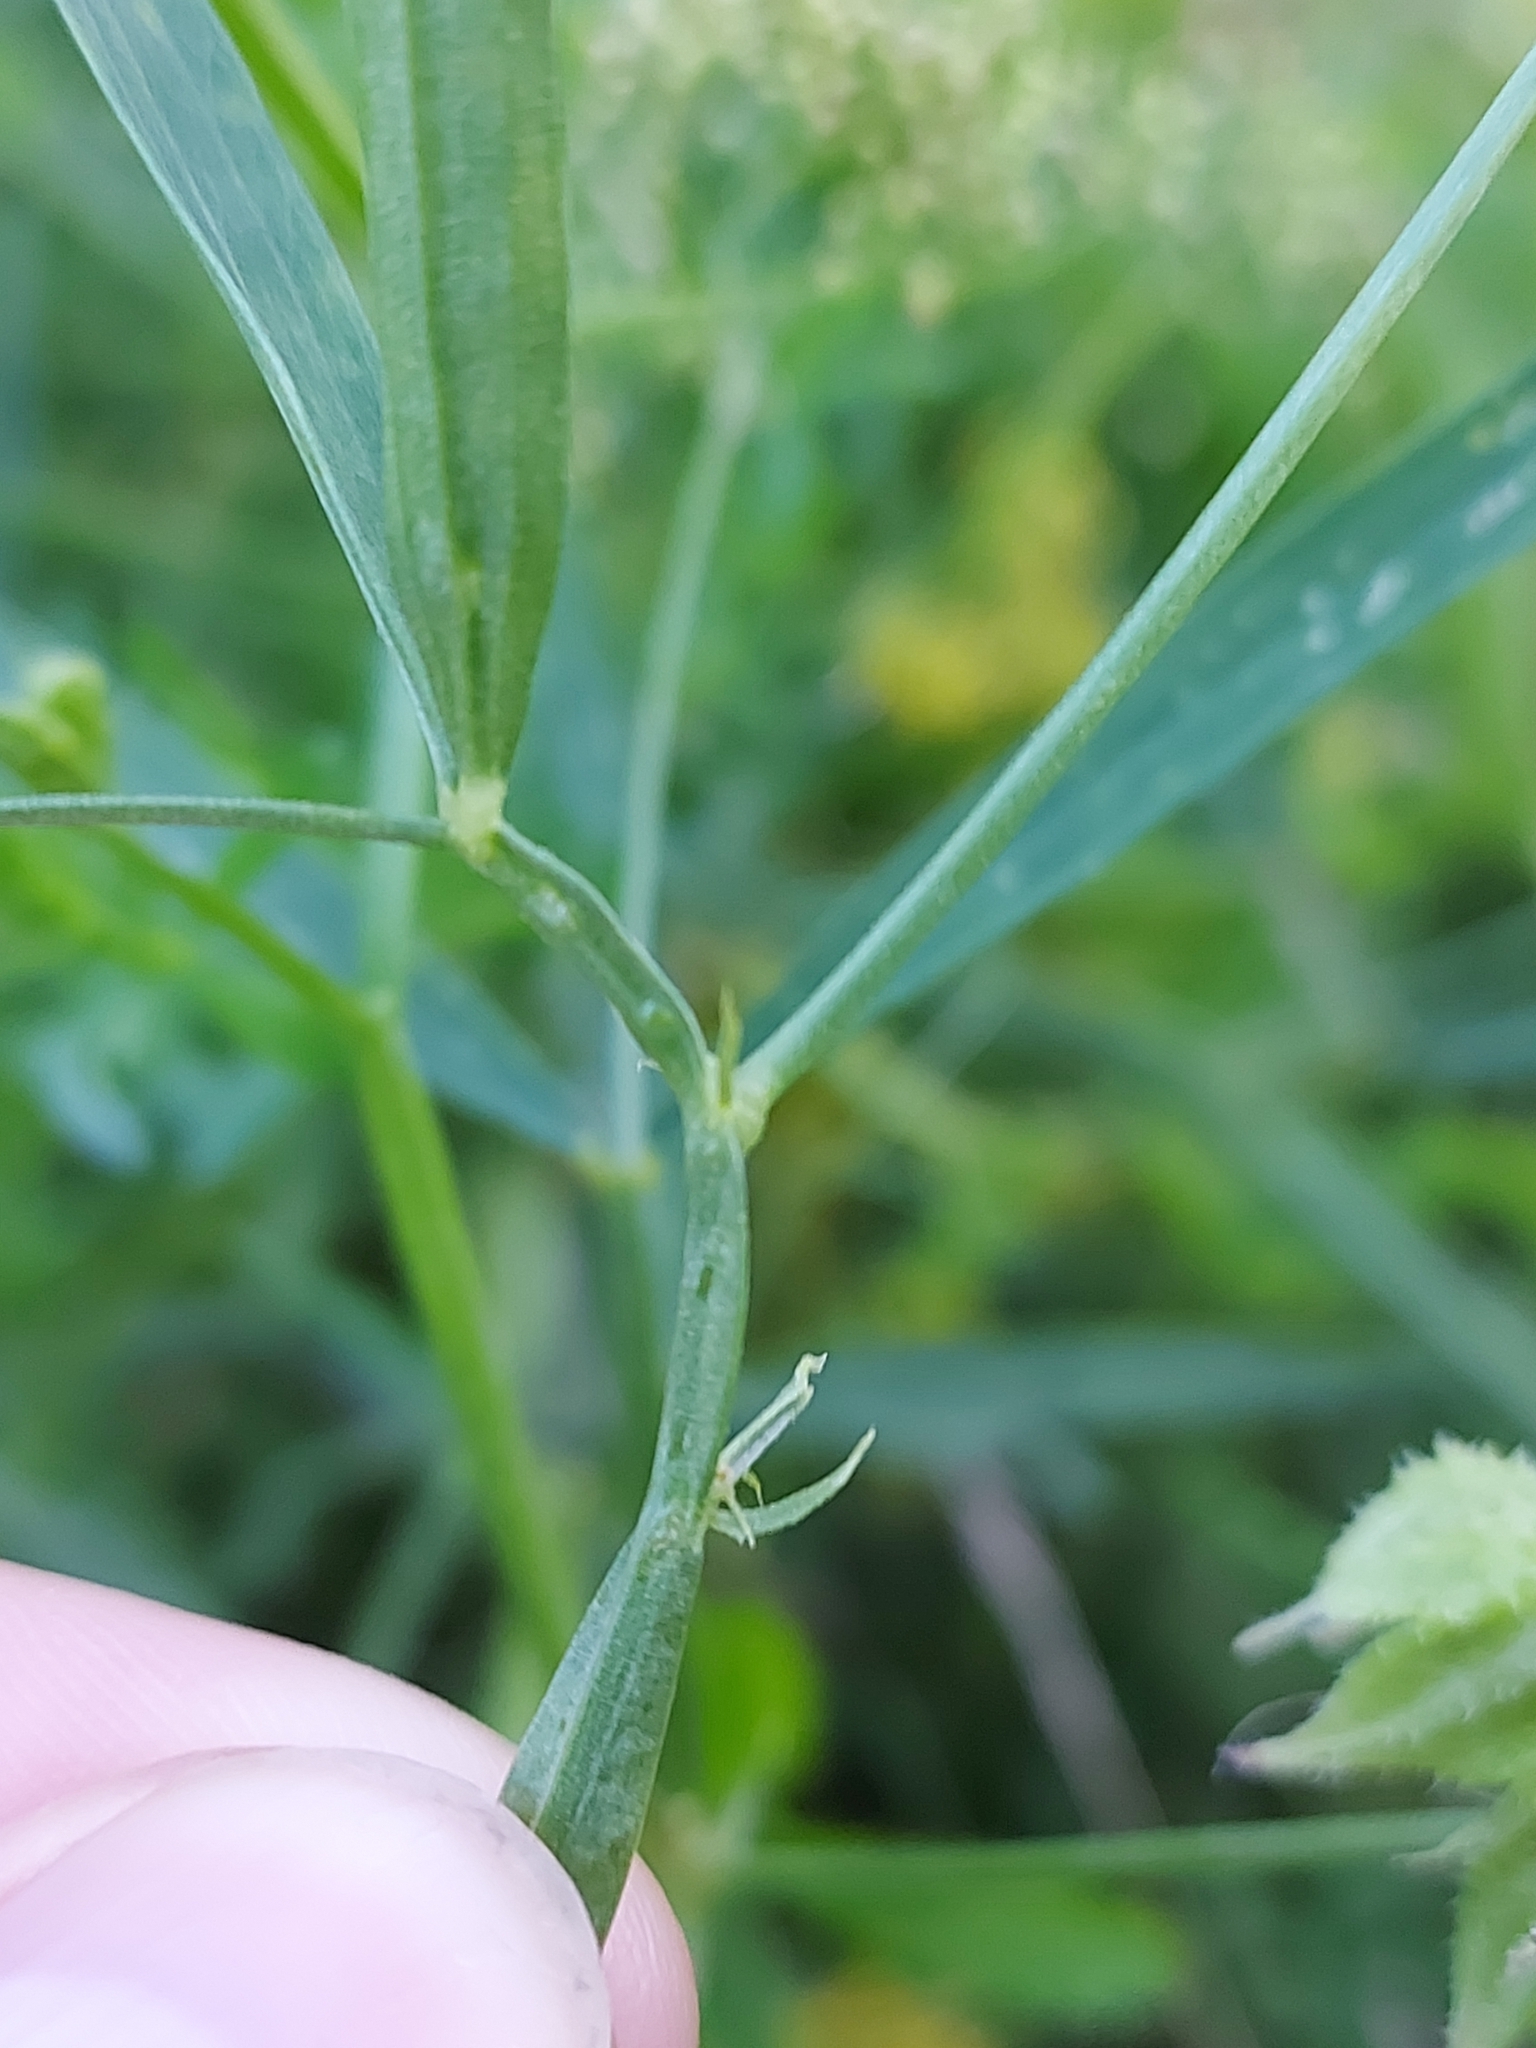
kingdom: Plantae
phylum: Tracheophyta
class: Magnoliopsida
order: Fabales
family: Fabaceae
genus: Lathyrus
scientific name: Lathyrus sylvestris
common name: Flat pea
